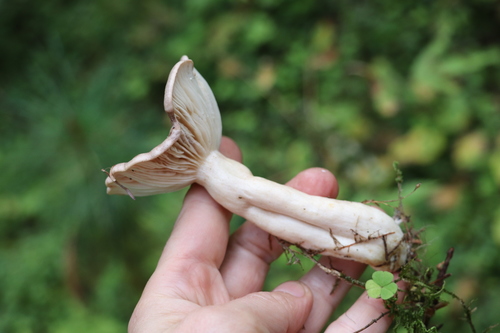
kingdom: Fungi
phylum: Basidiomycota
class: Agaricomycetes
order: Russulales
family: Russulaceae
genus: Lactarius
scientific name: Lactarius trivialis
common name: Tacked milkcap
